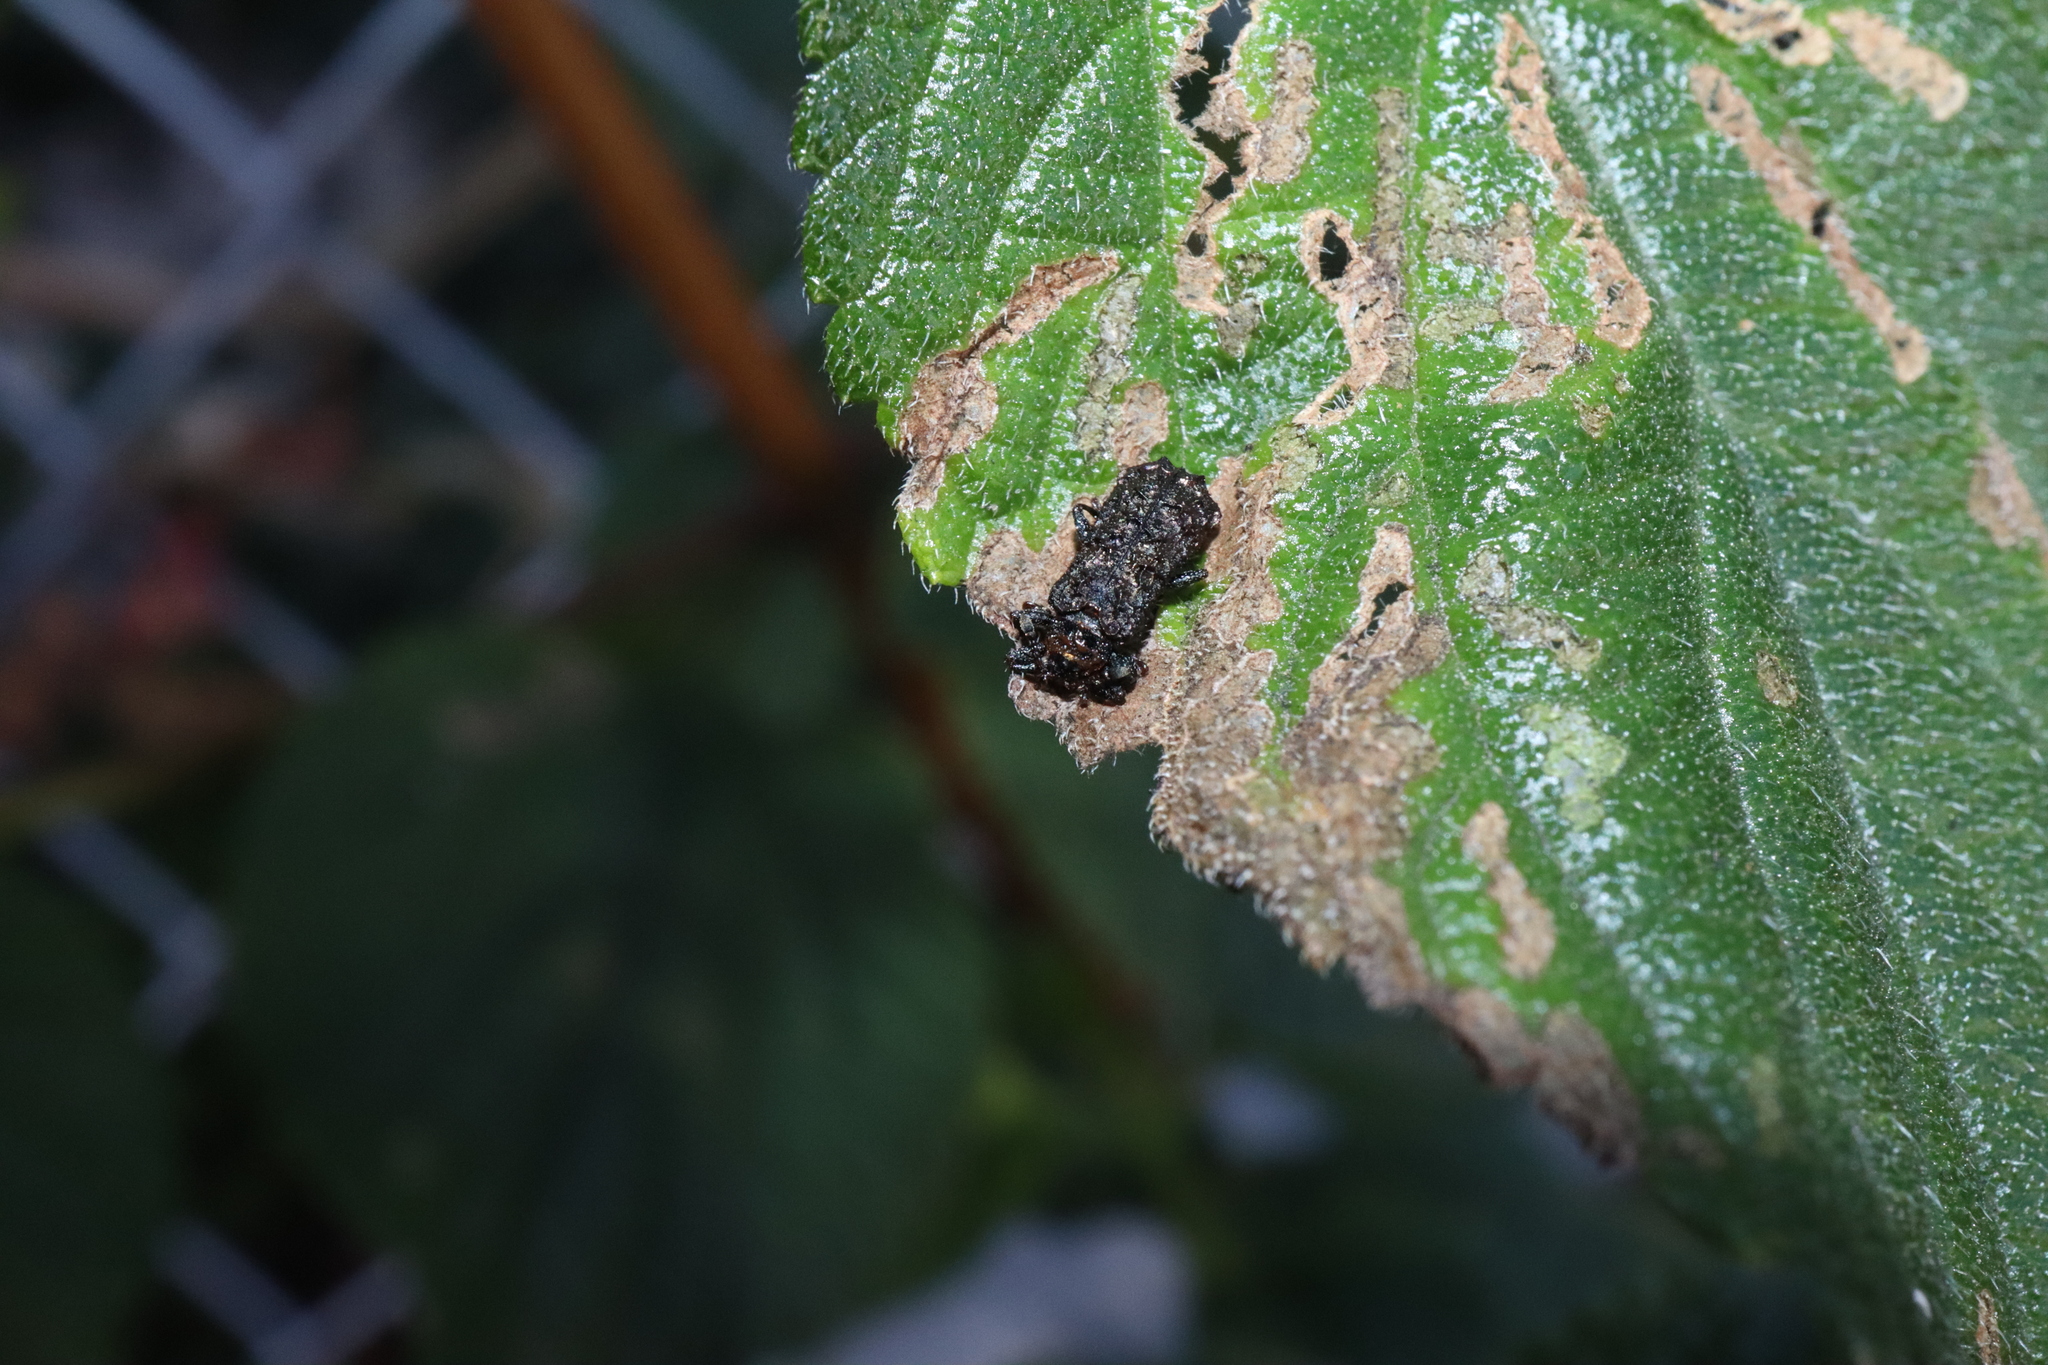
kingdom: Animalia
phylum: Arthropoda
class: Insecta
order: Coleoptera
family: Chrysomelidae
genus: Octotoma
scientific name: Octotoma scabripennis
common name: Beetle
